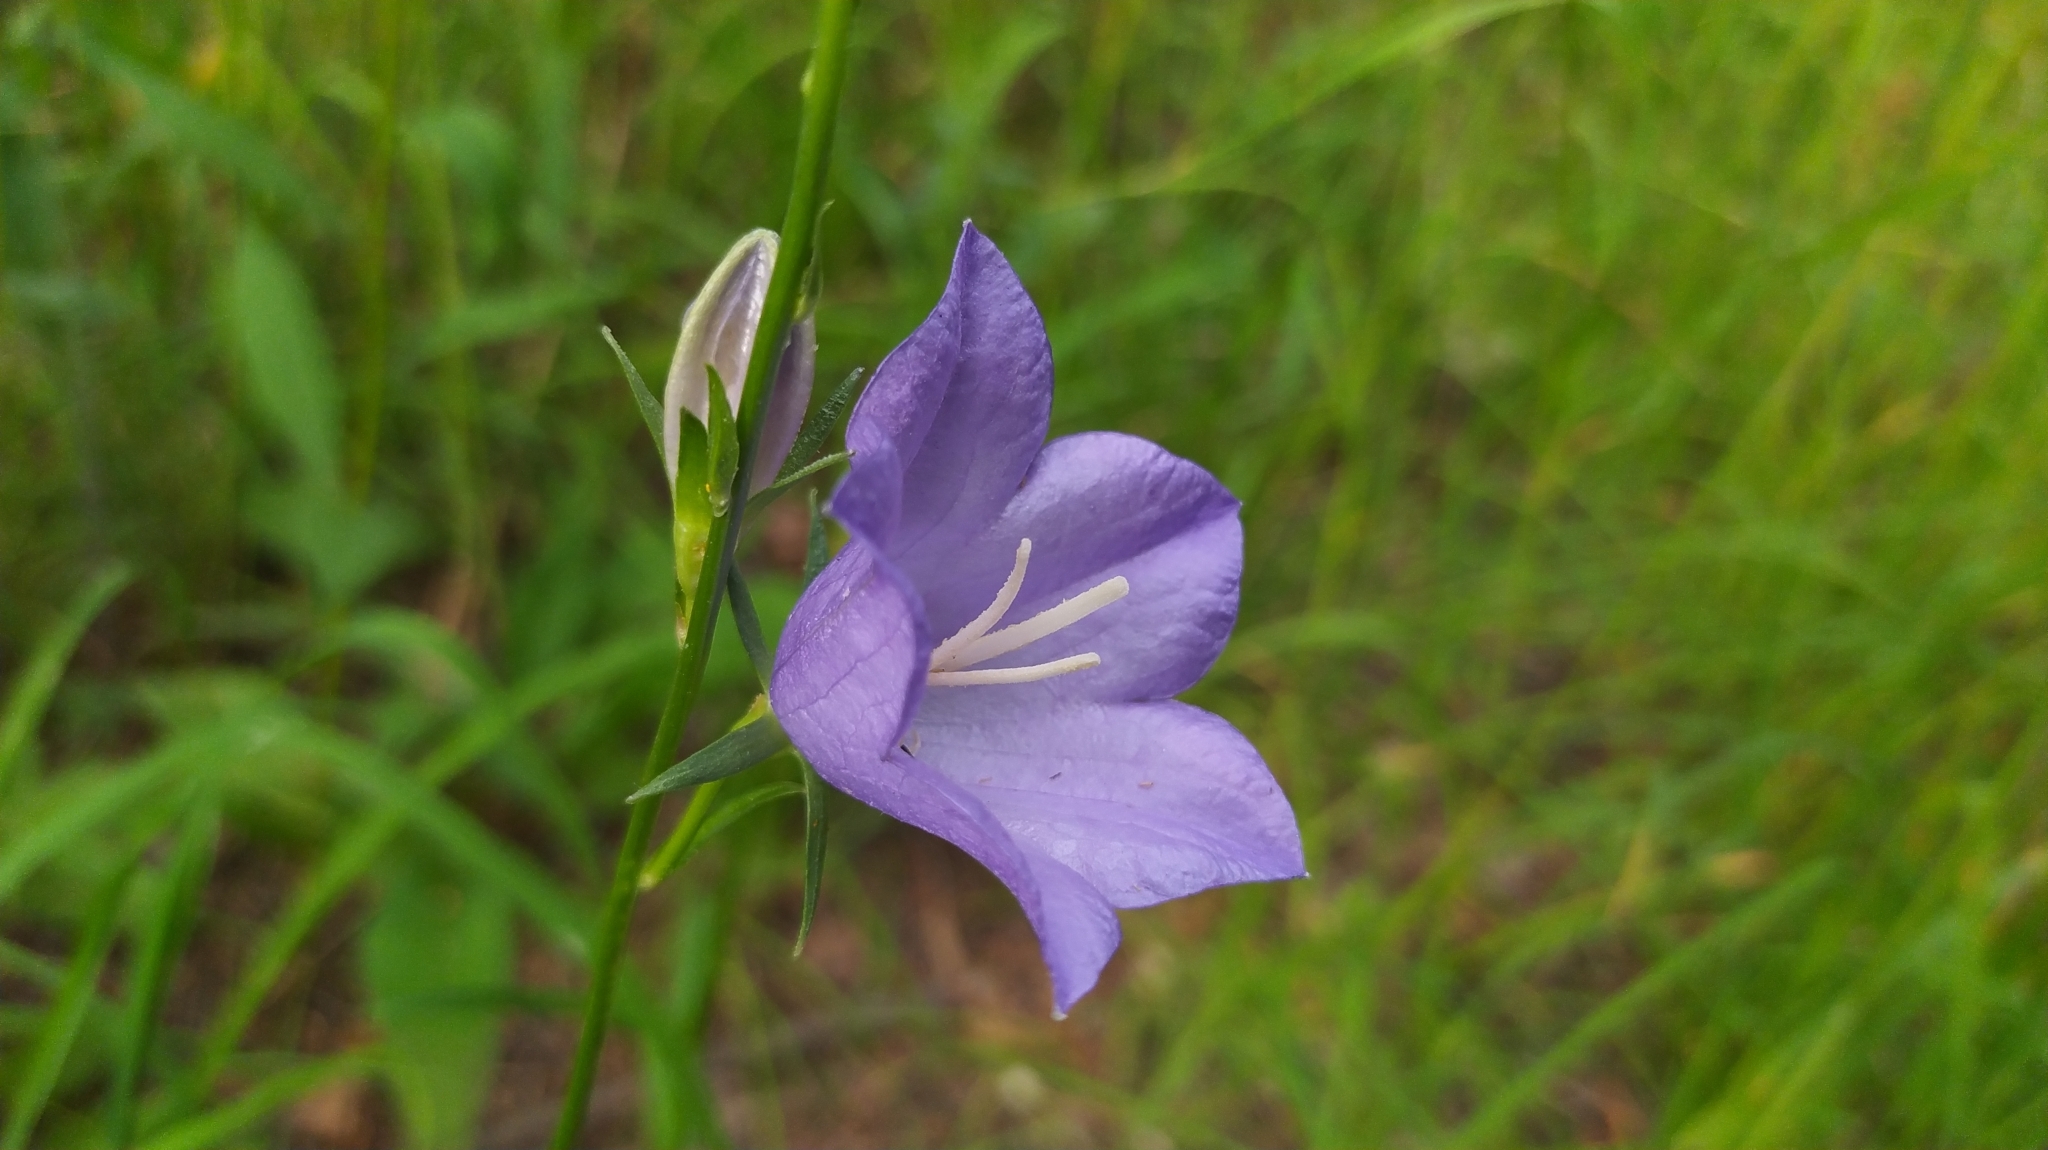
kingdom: Plantae
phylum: Tracheophyta
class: Magnoliopsida
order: Asterales
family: Campanulaceae
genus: Campanula
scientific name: Campanula persicifolia
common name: Peach-leaved bellflower
